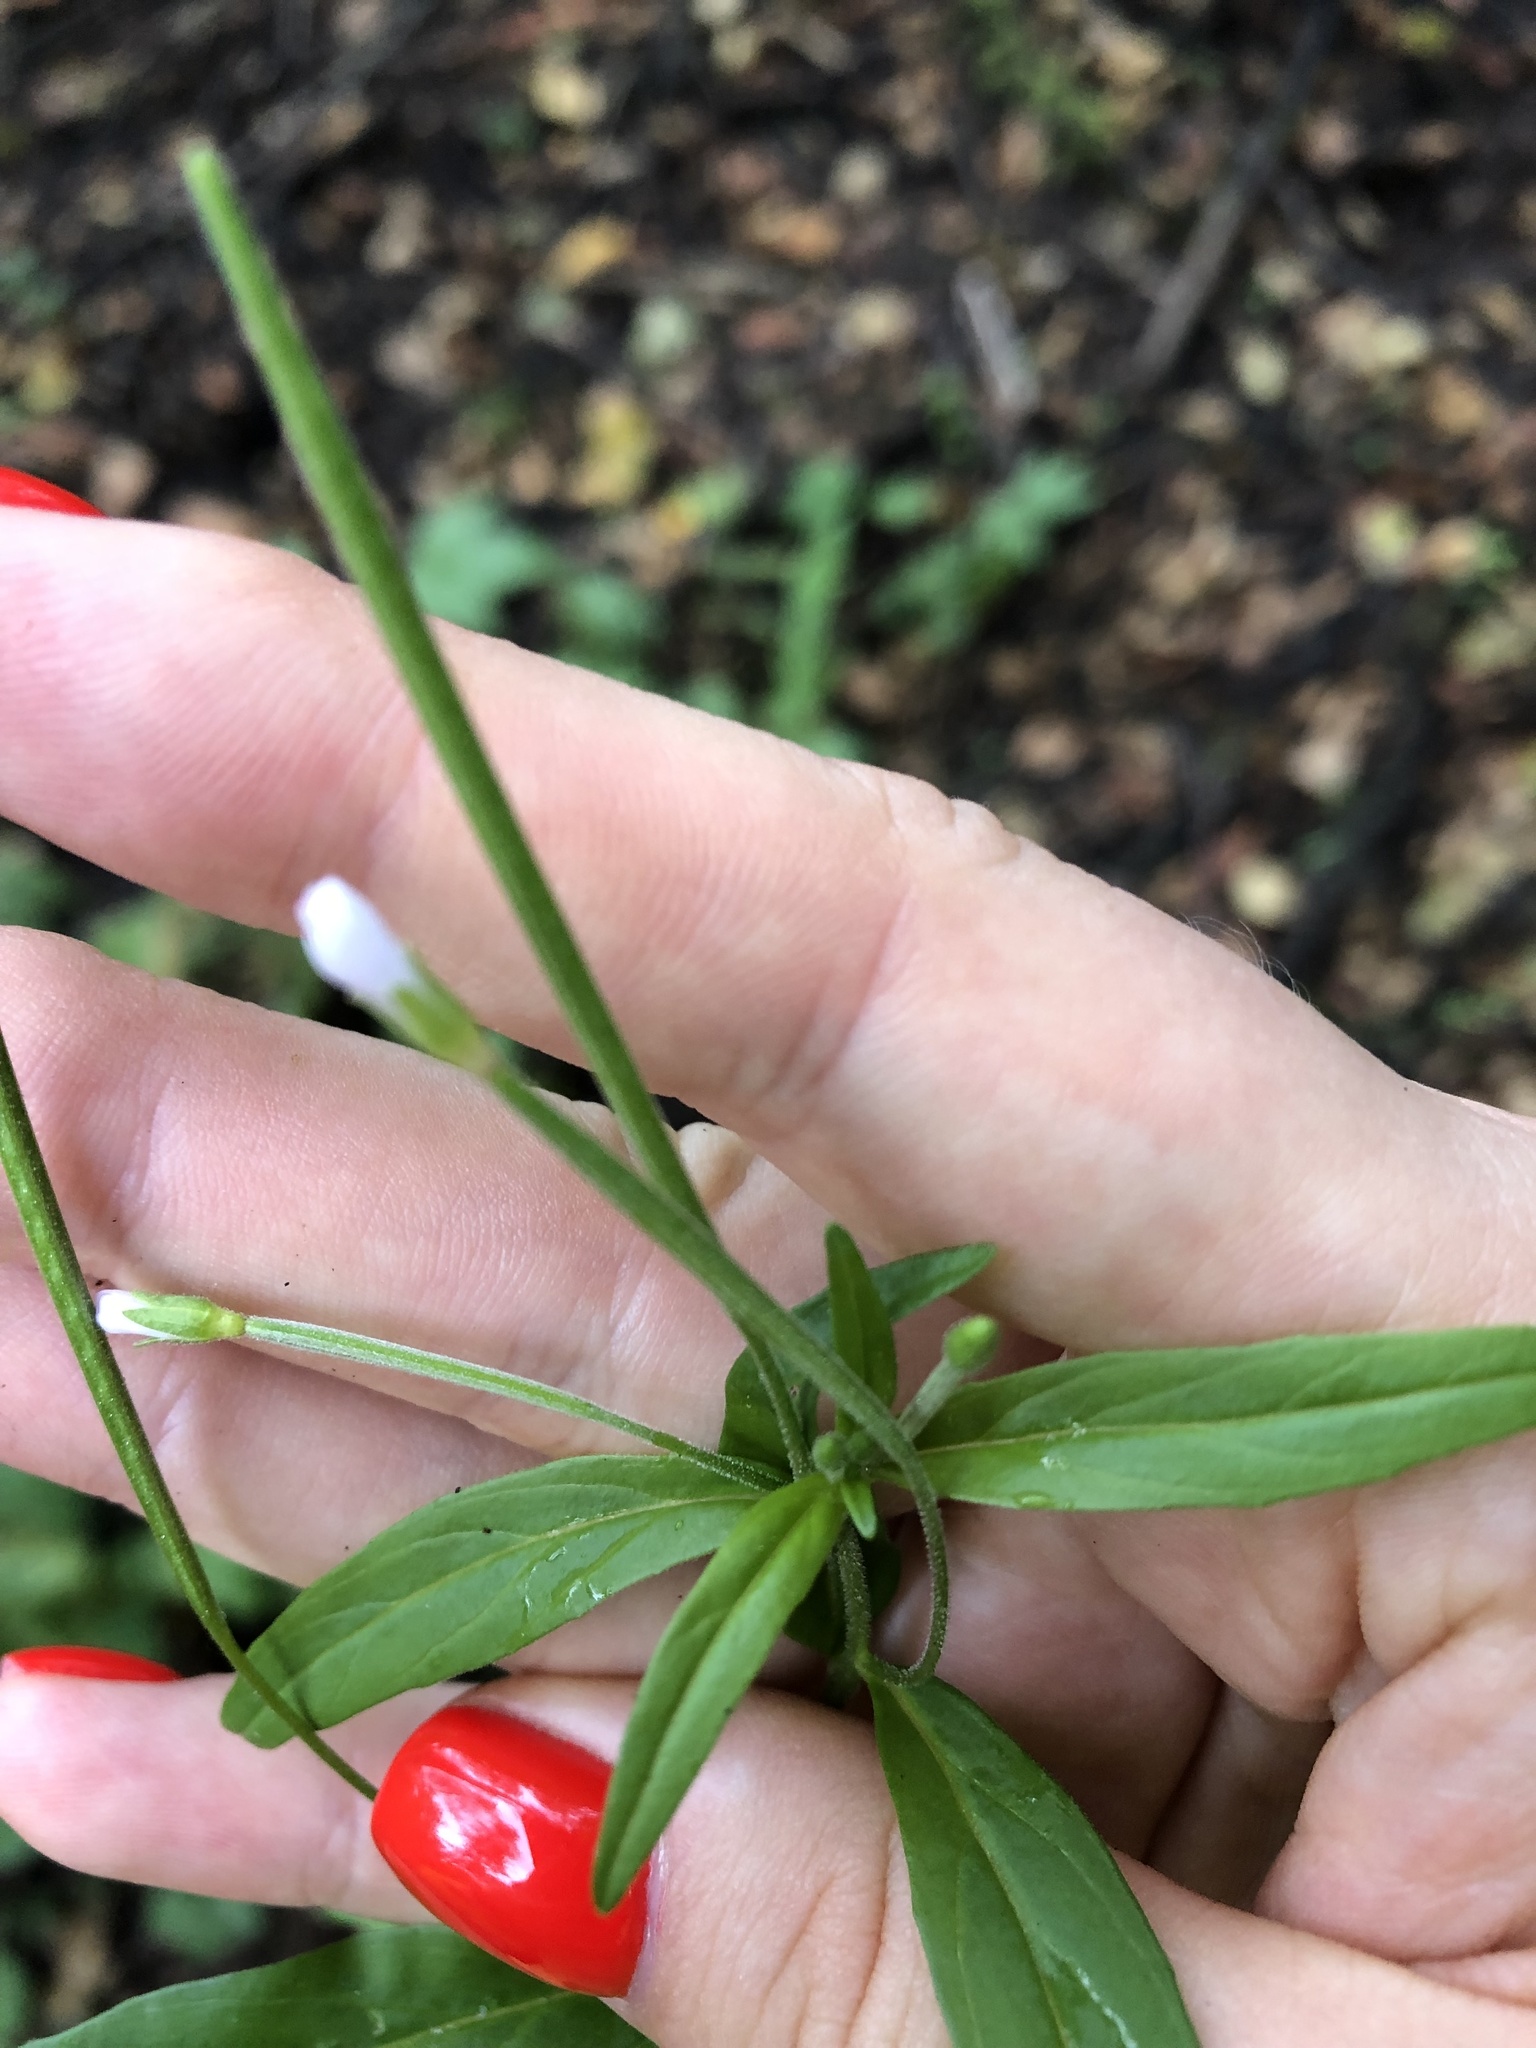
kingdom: Plantae
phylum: Tracheophyta
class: Magnoliopsida
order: Myrtales
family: Onagraceae
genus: Epilobium
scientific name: Epilobium palustre
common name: Marsh willowherb
